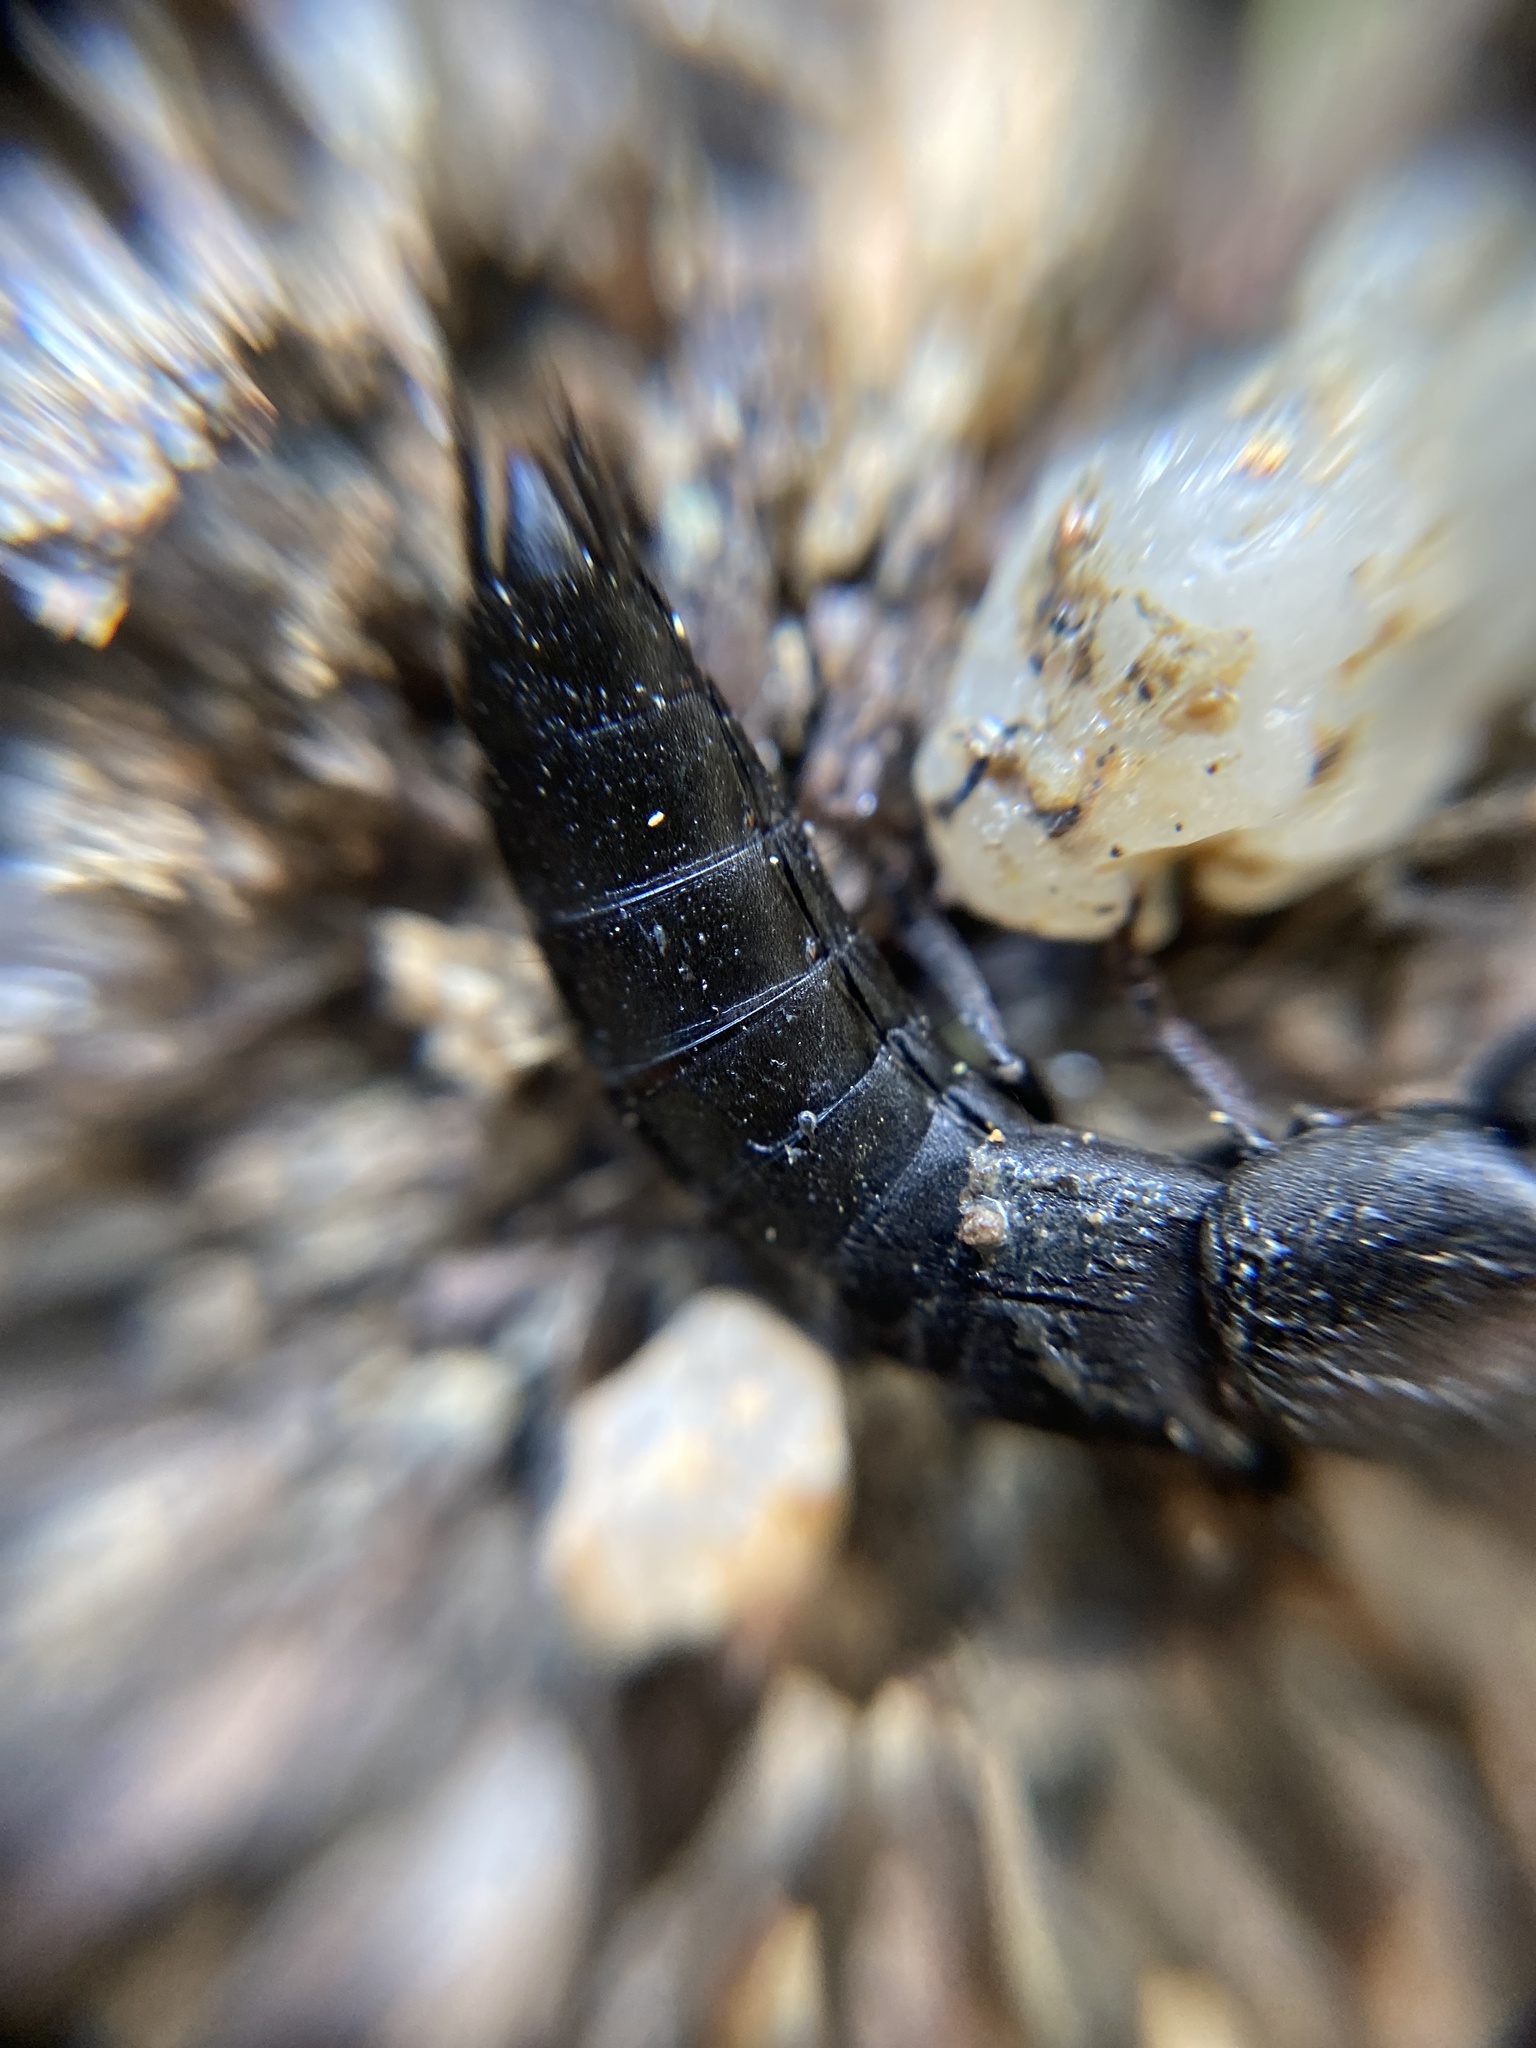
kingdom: Animalia
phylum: Arthropoda
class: Insecta
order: Coleoptera
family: Staphylinidae
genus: Ocypus
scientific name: Ocypus nitens
